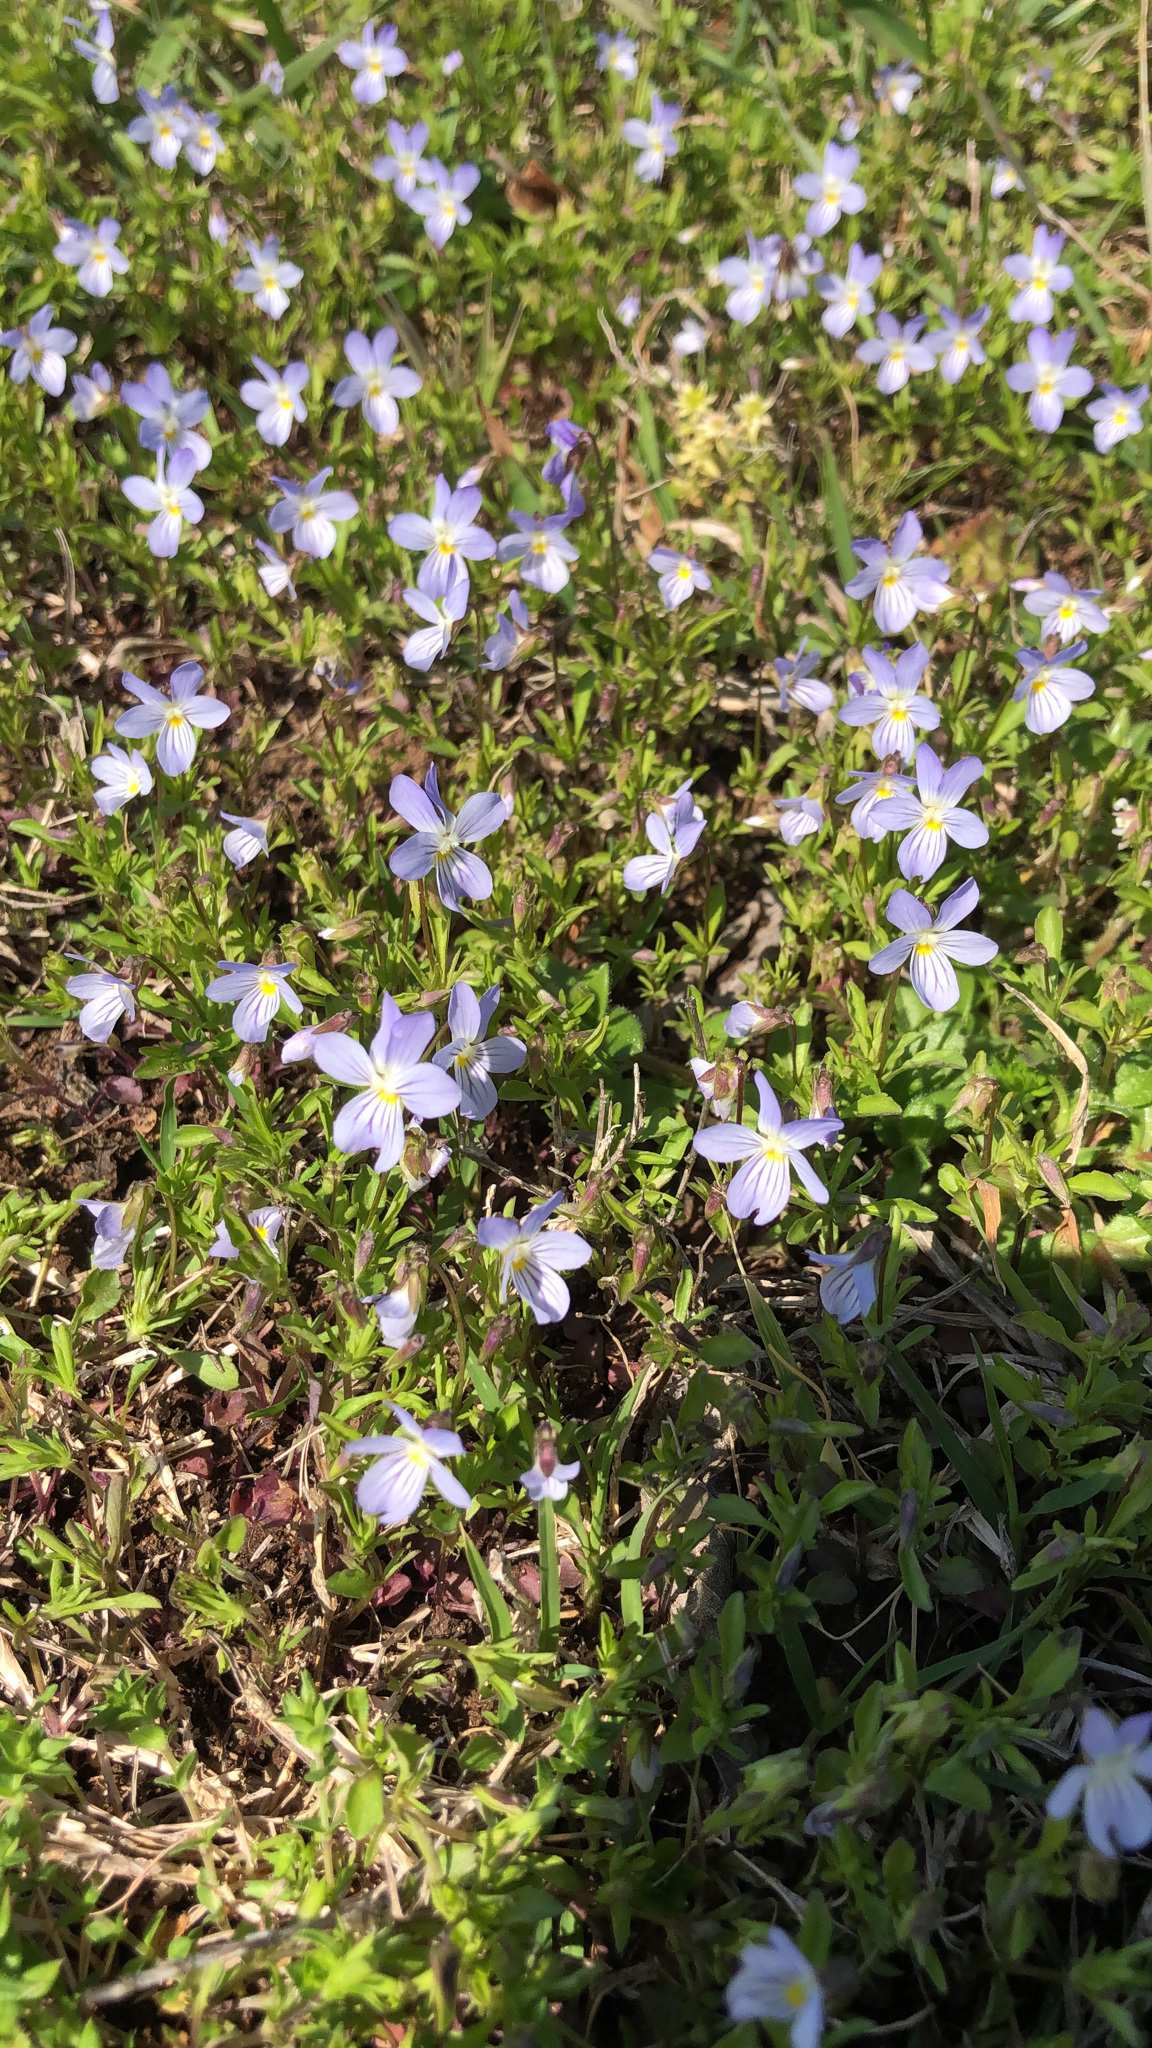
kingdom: Plantae
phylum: Tracheophyta
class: Magnoliopsida
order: Malpighiales
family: Violaceae
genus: Viola
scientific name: Viola rafinesquei
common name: American field pansy
